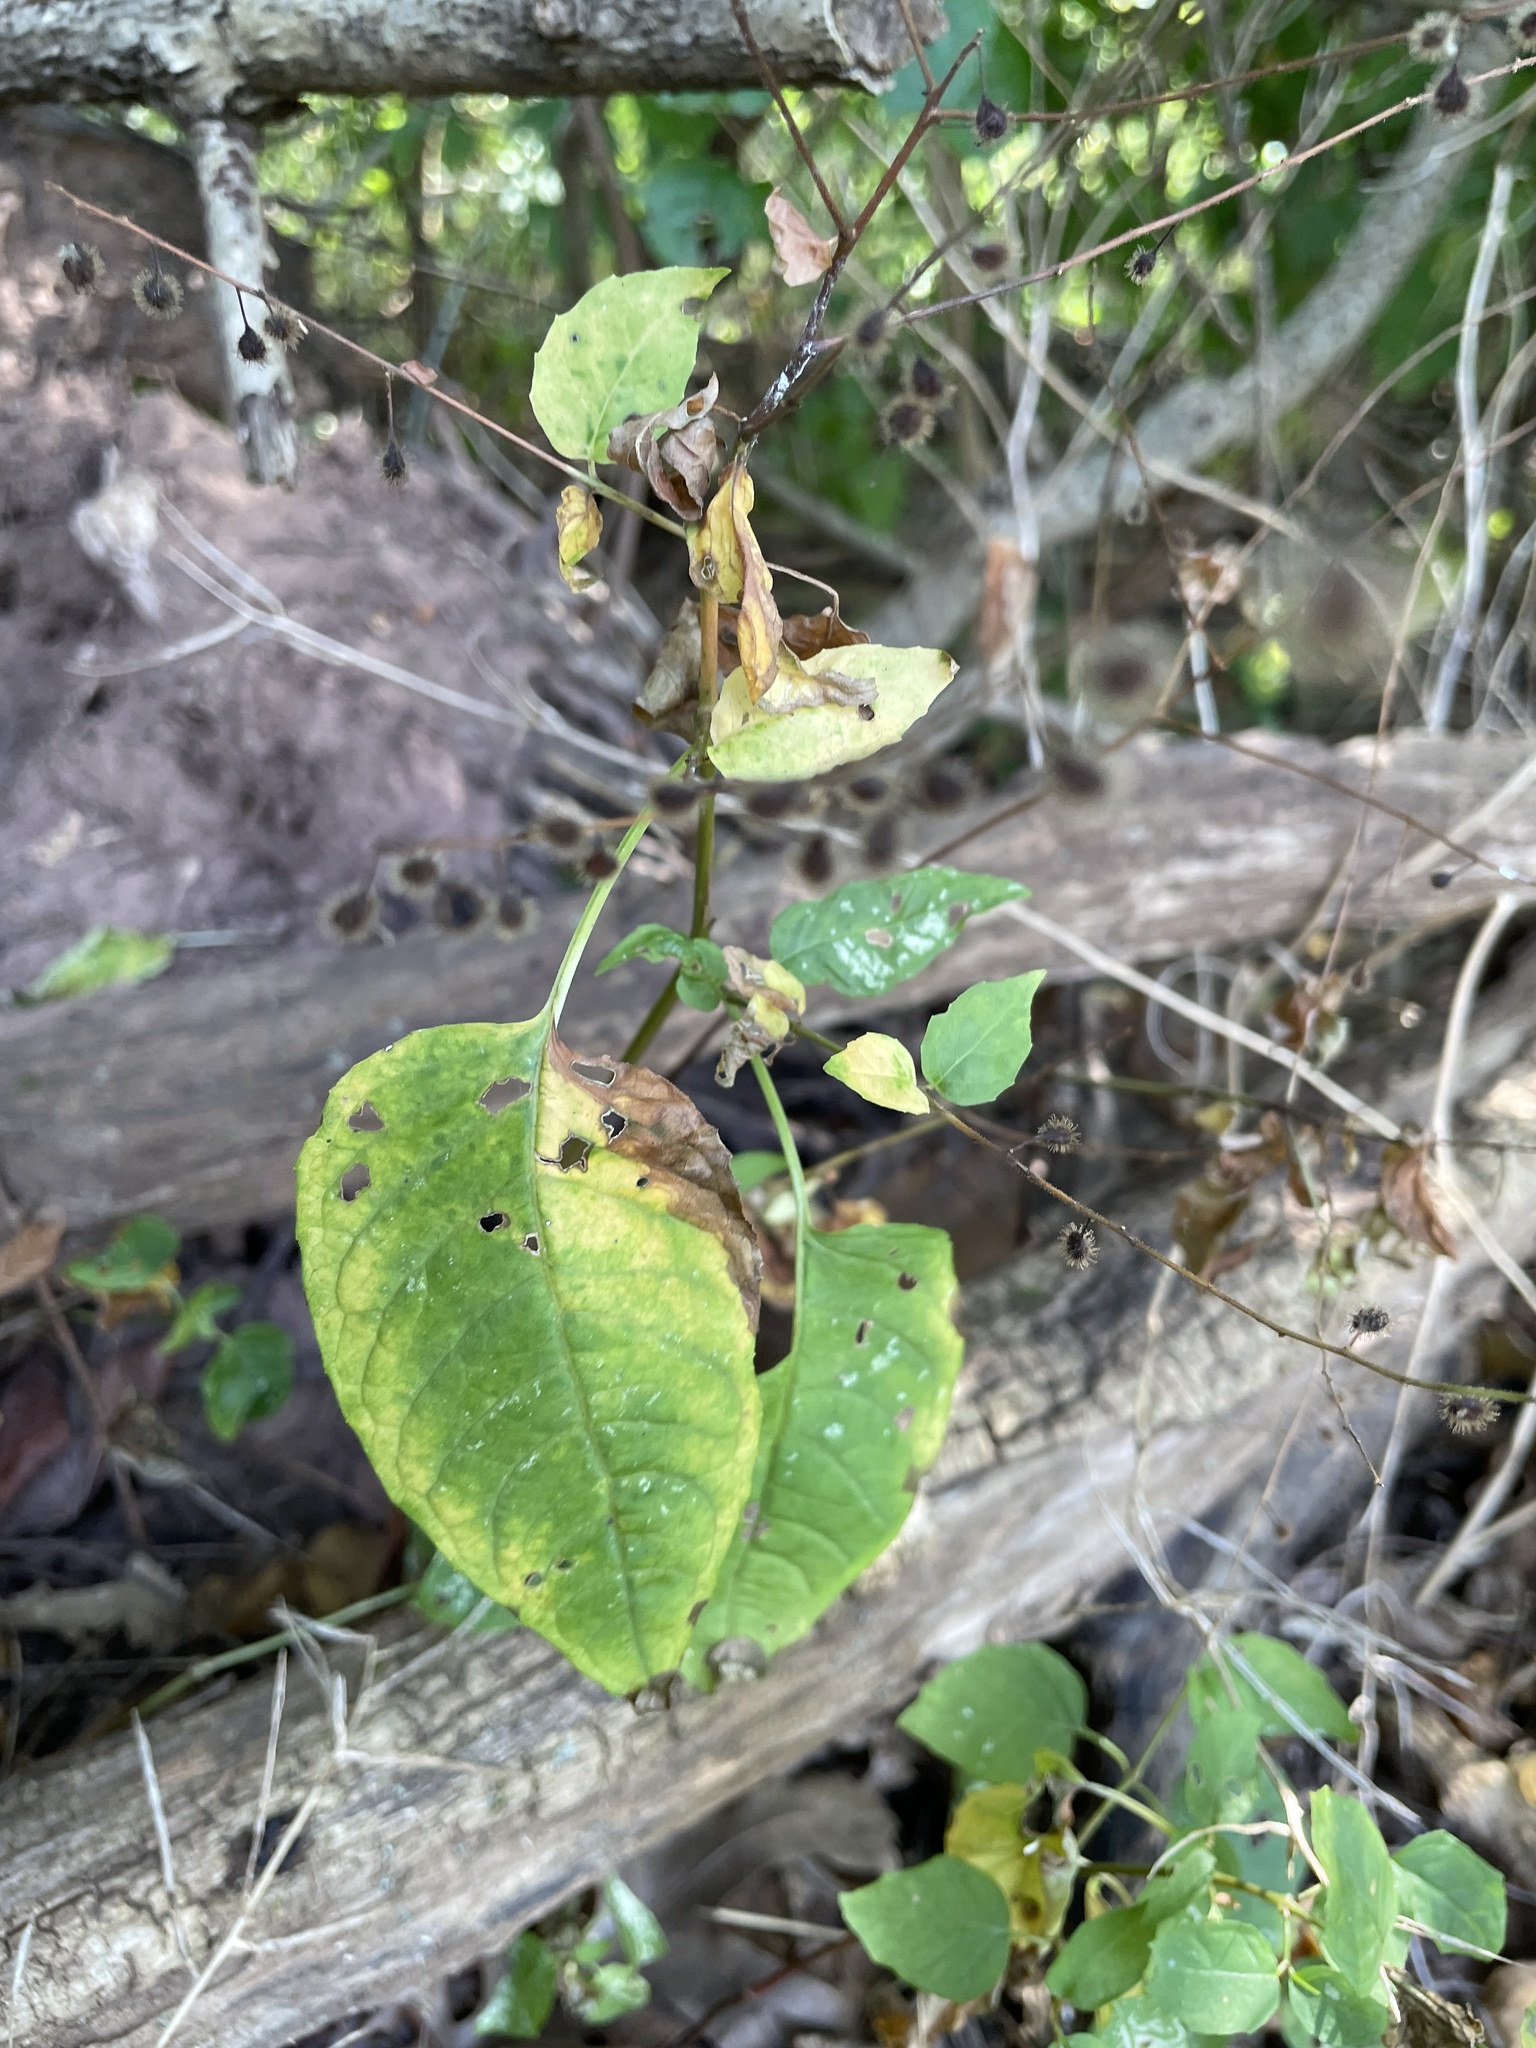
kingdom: Plantae
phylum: Tracheophyta
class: Magnoliopsida
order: Myrtales
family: Onagraceae
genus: Circaea
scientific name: Circaea canadensis
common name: Broad-leaved enchanter's nightshade
